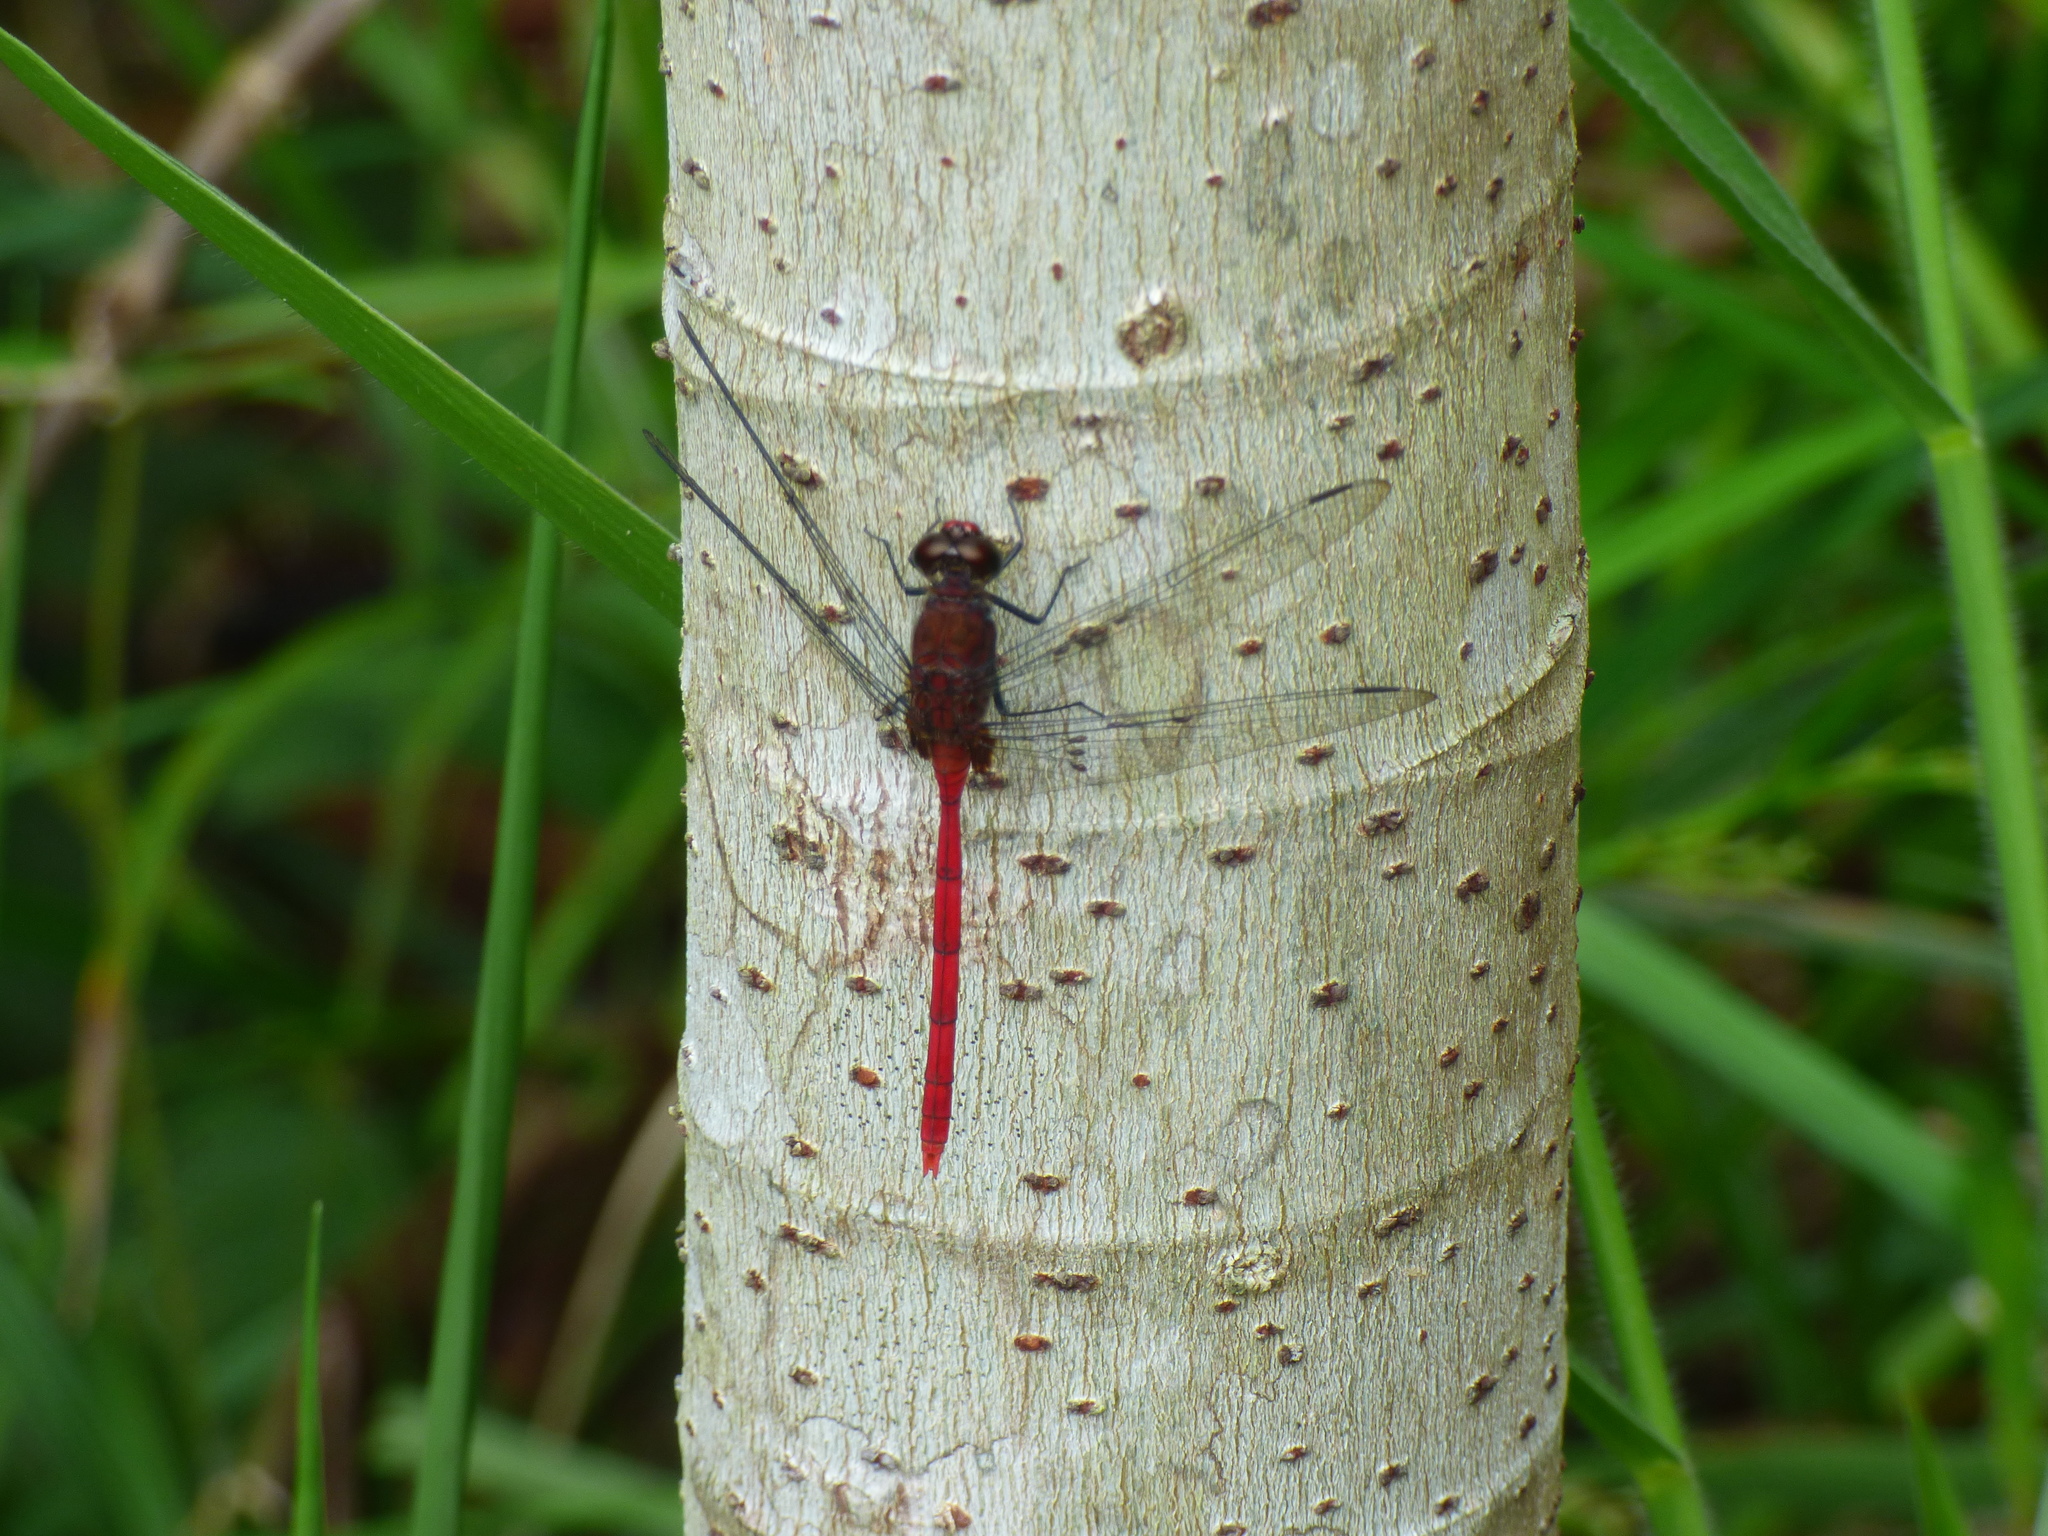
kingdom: Animalia
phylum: Arthropoda
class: Insecta
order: Odonata
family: Libellulidae
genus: Erythemis
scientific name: Erythemis haematogastra
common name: Red pondhawk
